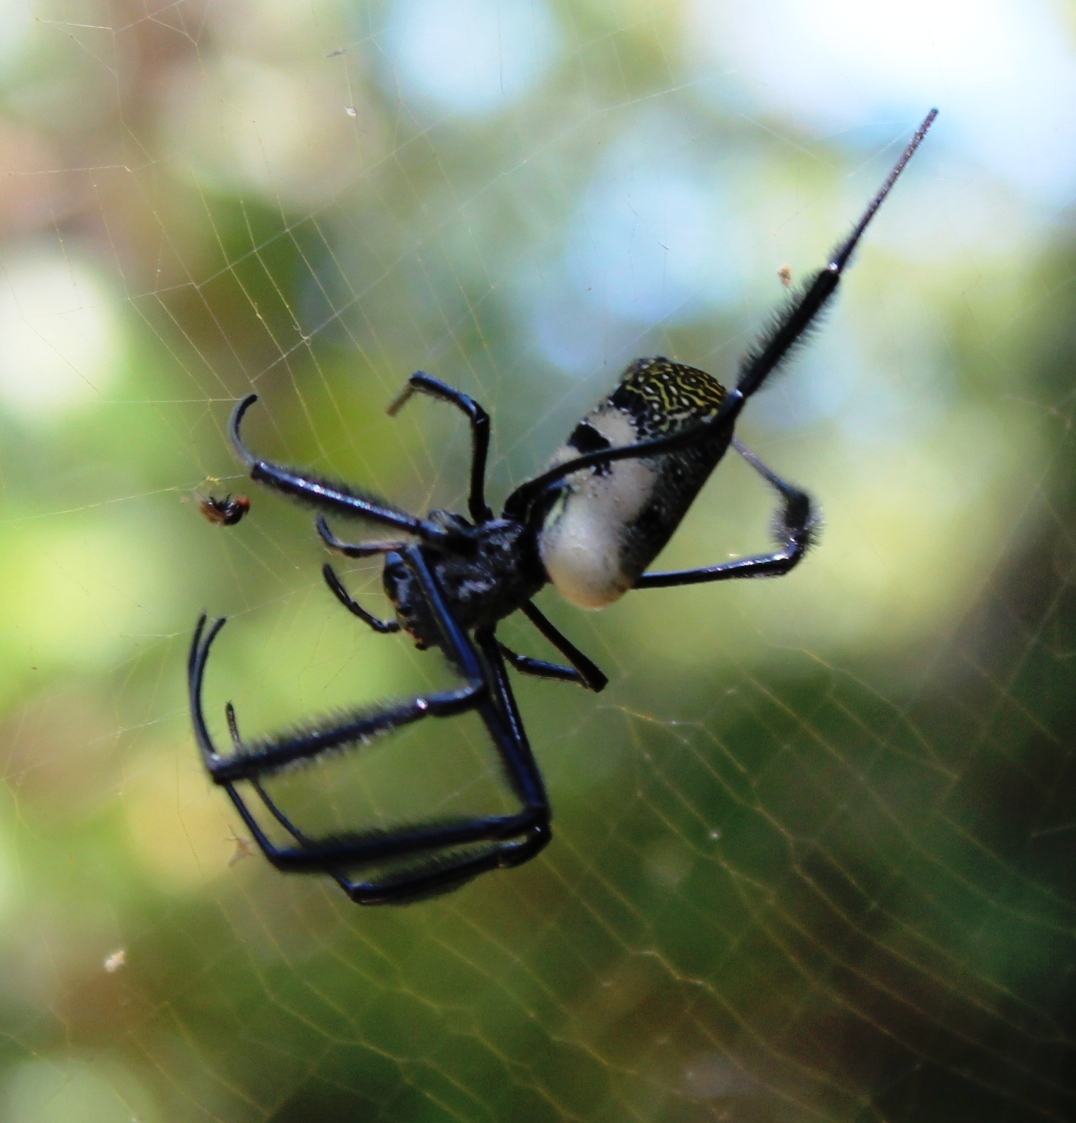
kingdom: Animalia
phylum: Arthropoda
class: Arachnida
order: Araneae
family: Araneidae
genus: Trichonephila
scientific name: Trichonephila fenestrata
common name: Hairy golden orb weaver
